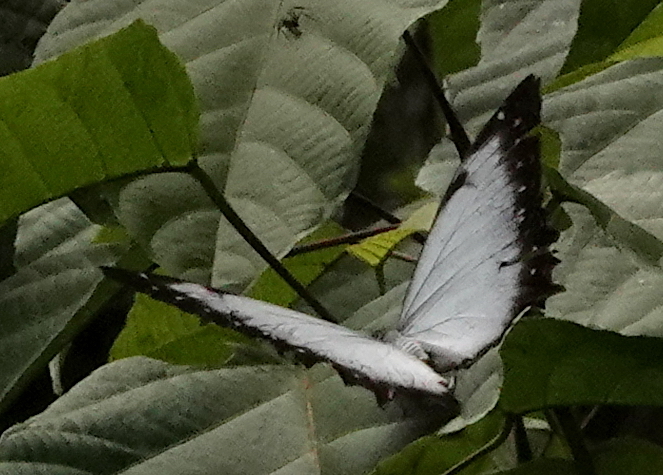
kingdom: Animalia
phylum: Arthropoda
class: Insecta
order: Lepidoptera
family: Nymphalidae
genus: Morpho
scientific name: Morpho theseus
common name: Stub-tailed morpho
